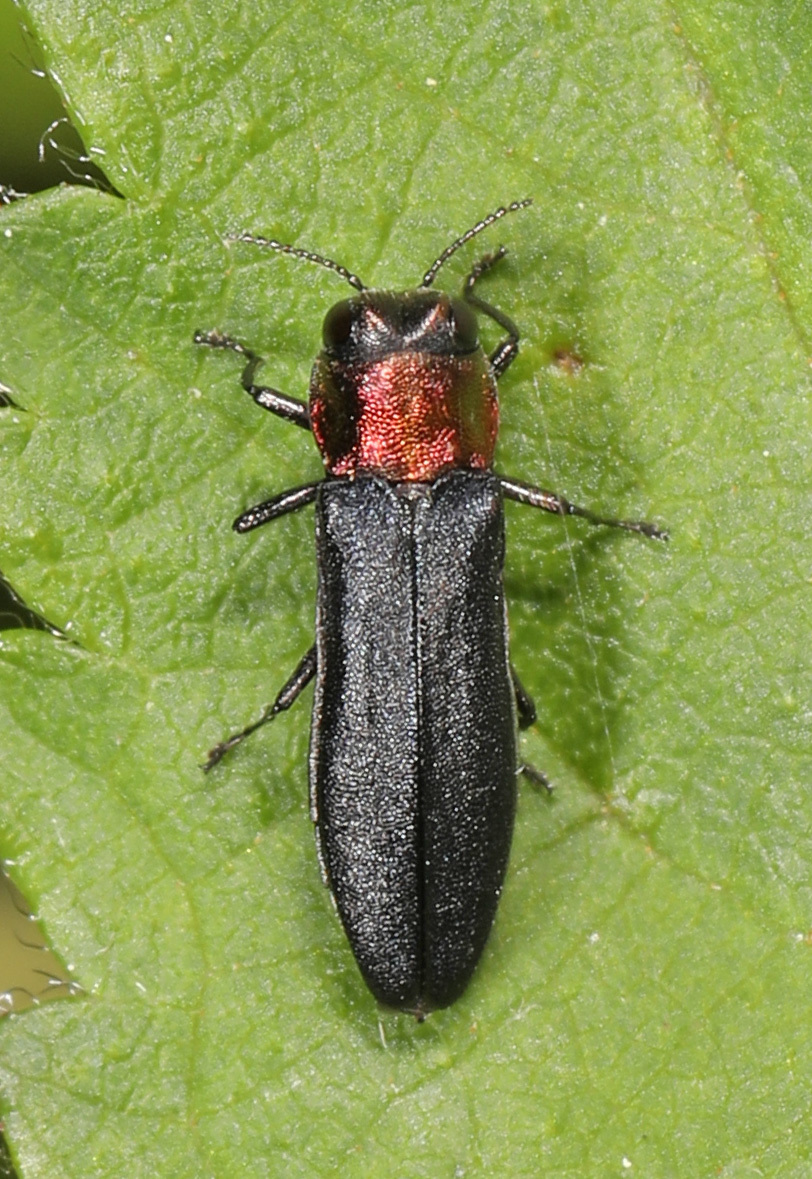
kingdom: Animalia
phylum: Arthropoda
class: Insecta
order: Coleoptera
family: Buprestidae
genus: Agrilus
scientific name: Agrilus ruficollis
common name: Red-necked cane borer beetle
